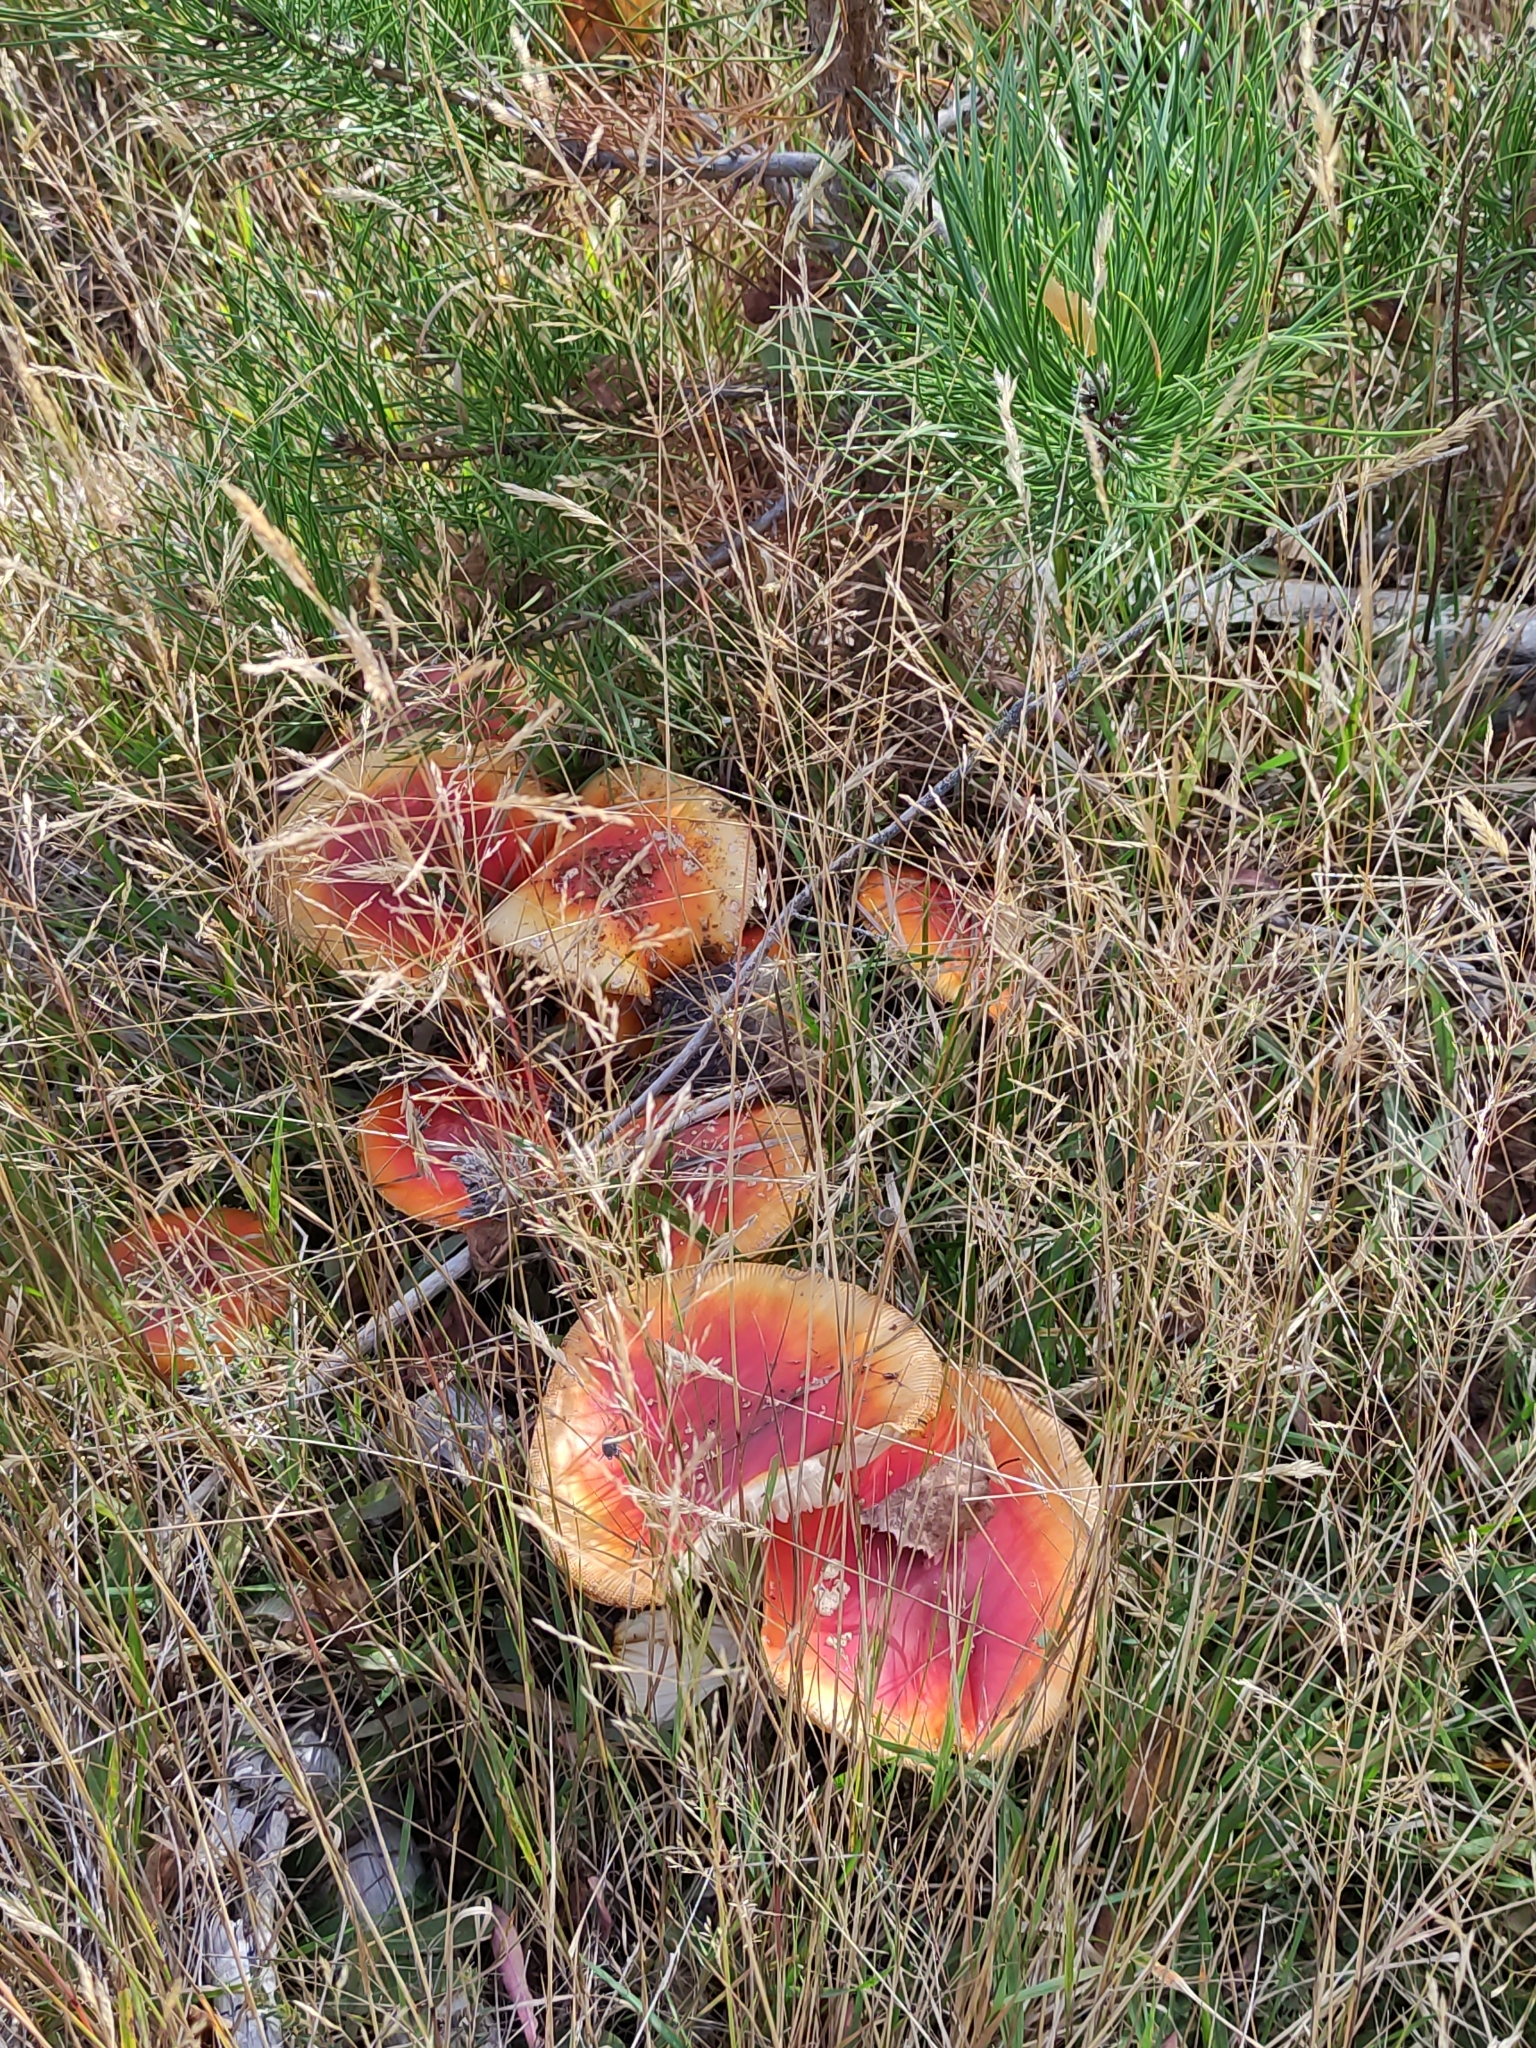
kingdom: Fungi
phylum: Basidiomycota
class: Agaricomycetes
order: Agaricales
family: Amanitaceae
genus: Amanita
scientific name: Amanita muscaria
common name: Fly agaric
